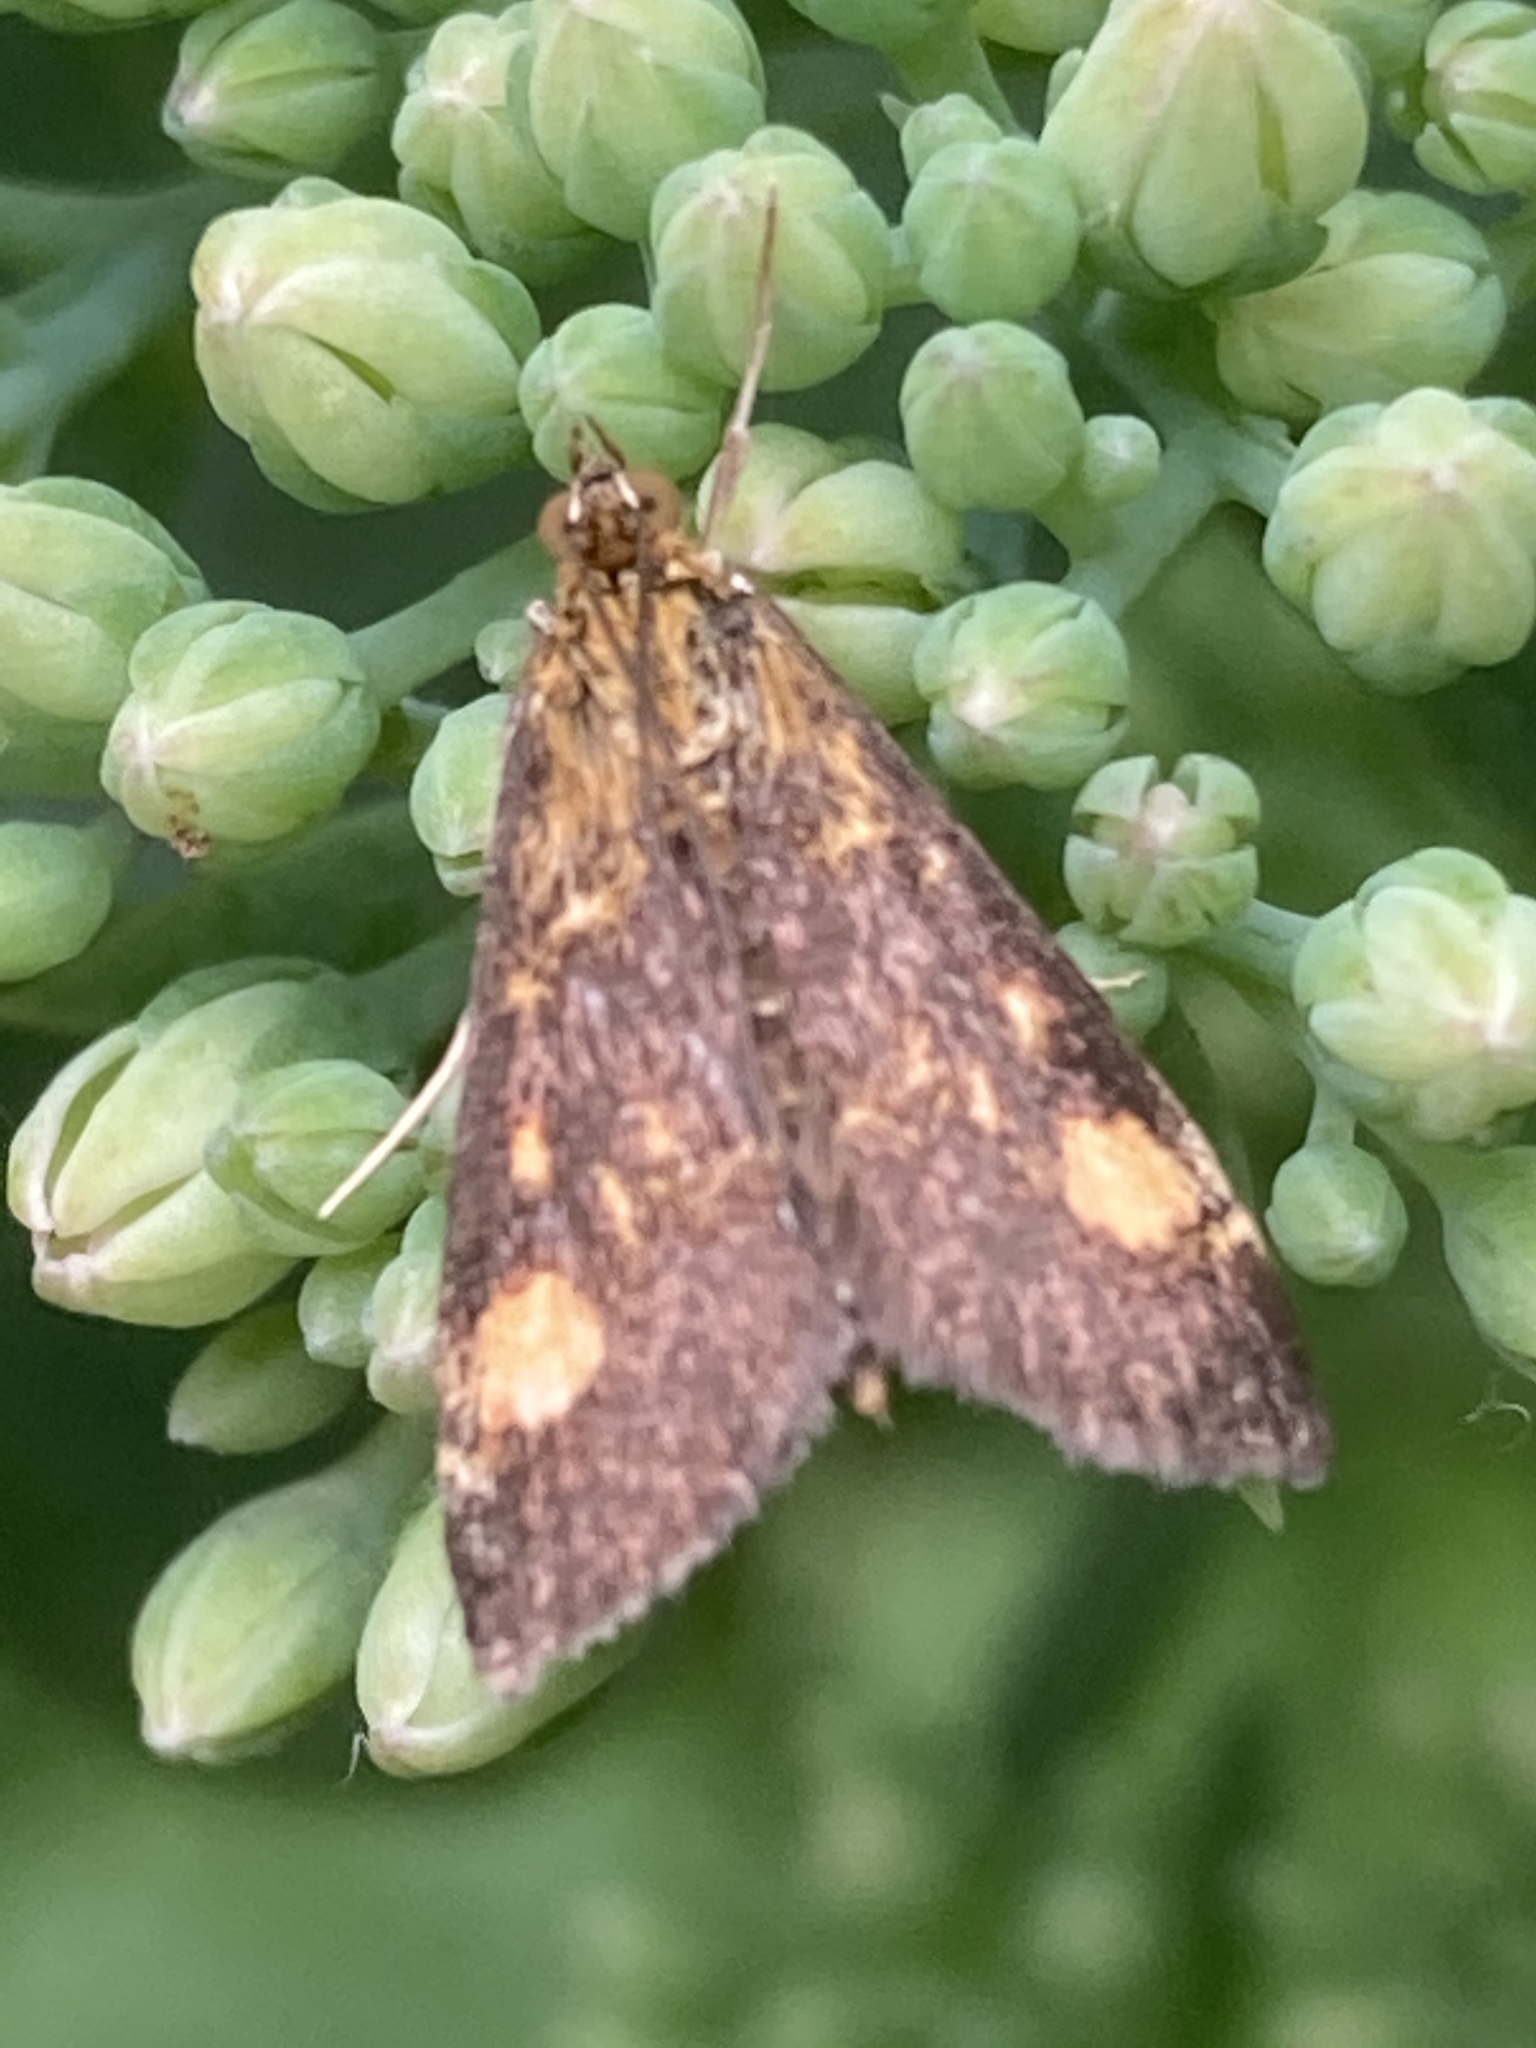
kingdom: Animalia
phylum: Arthropoda
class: Insecta
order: Lepidoptera
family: Crambidae
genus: Pyrausta
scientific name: Pyrausta aurata
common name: Small purple & gold
